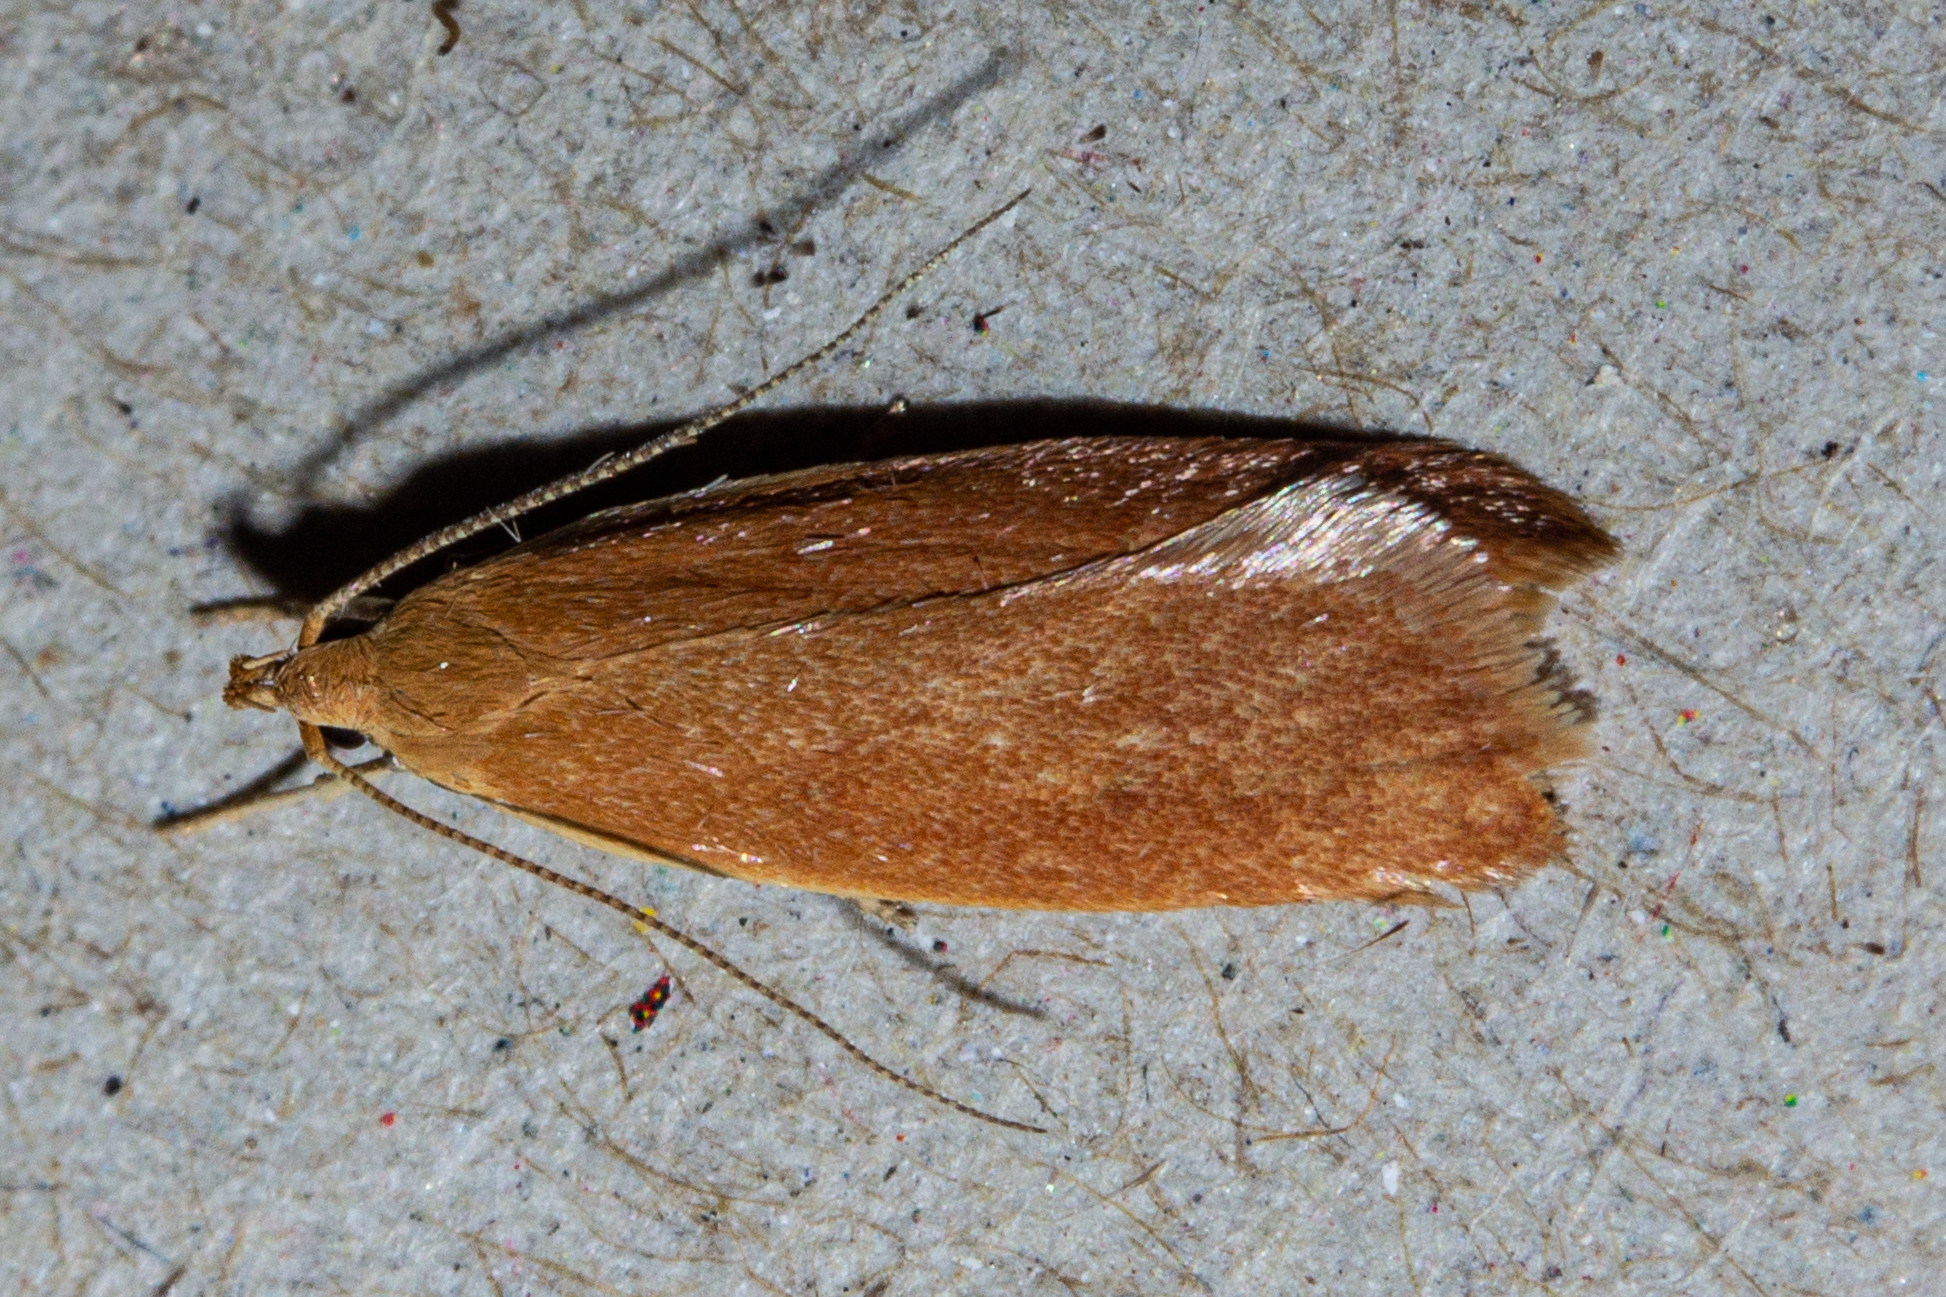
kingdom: Animalia
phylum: Arthropoda
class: Insecta
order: Lepidoptera
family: Oecophoridae
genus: Gymnobathra
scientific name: Gymnobathra sarcoxantha
